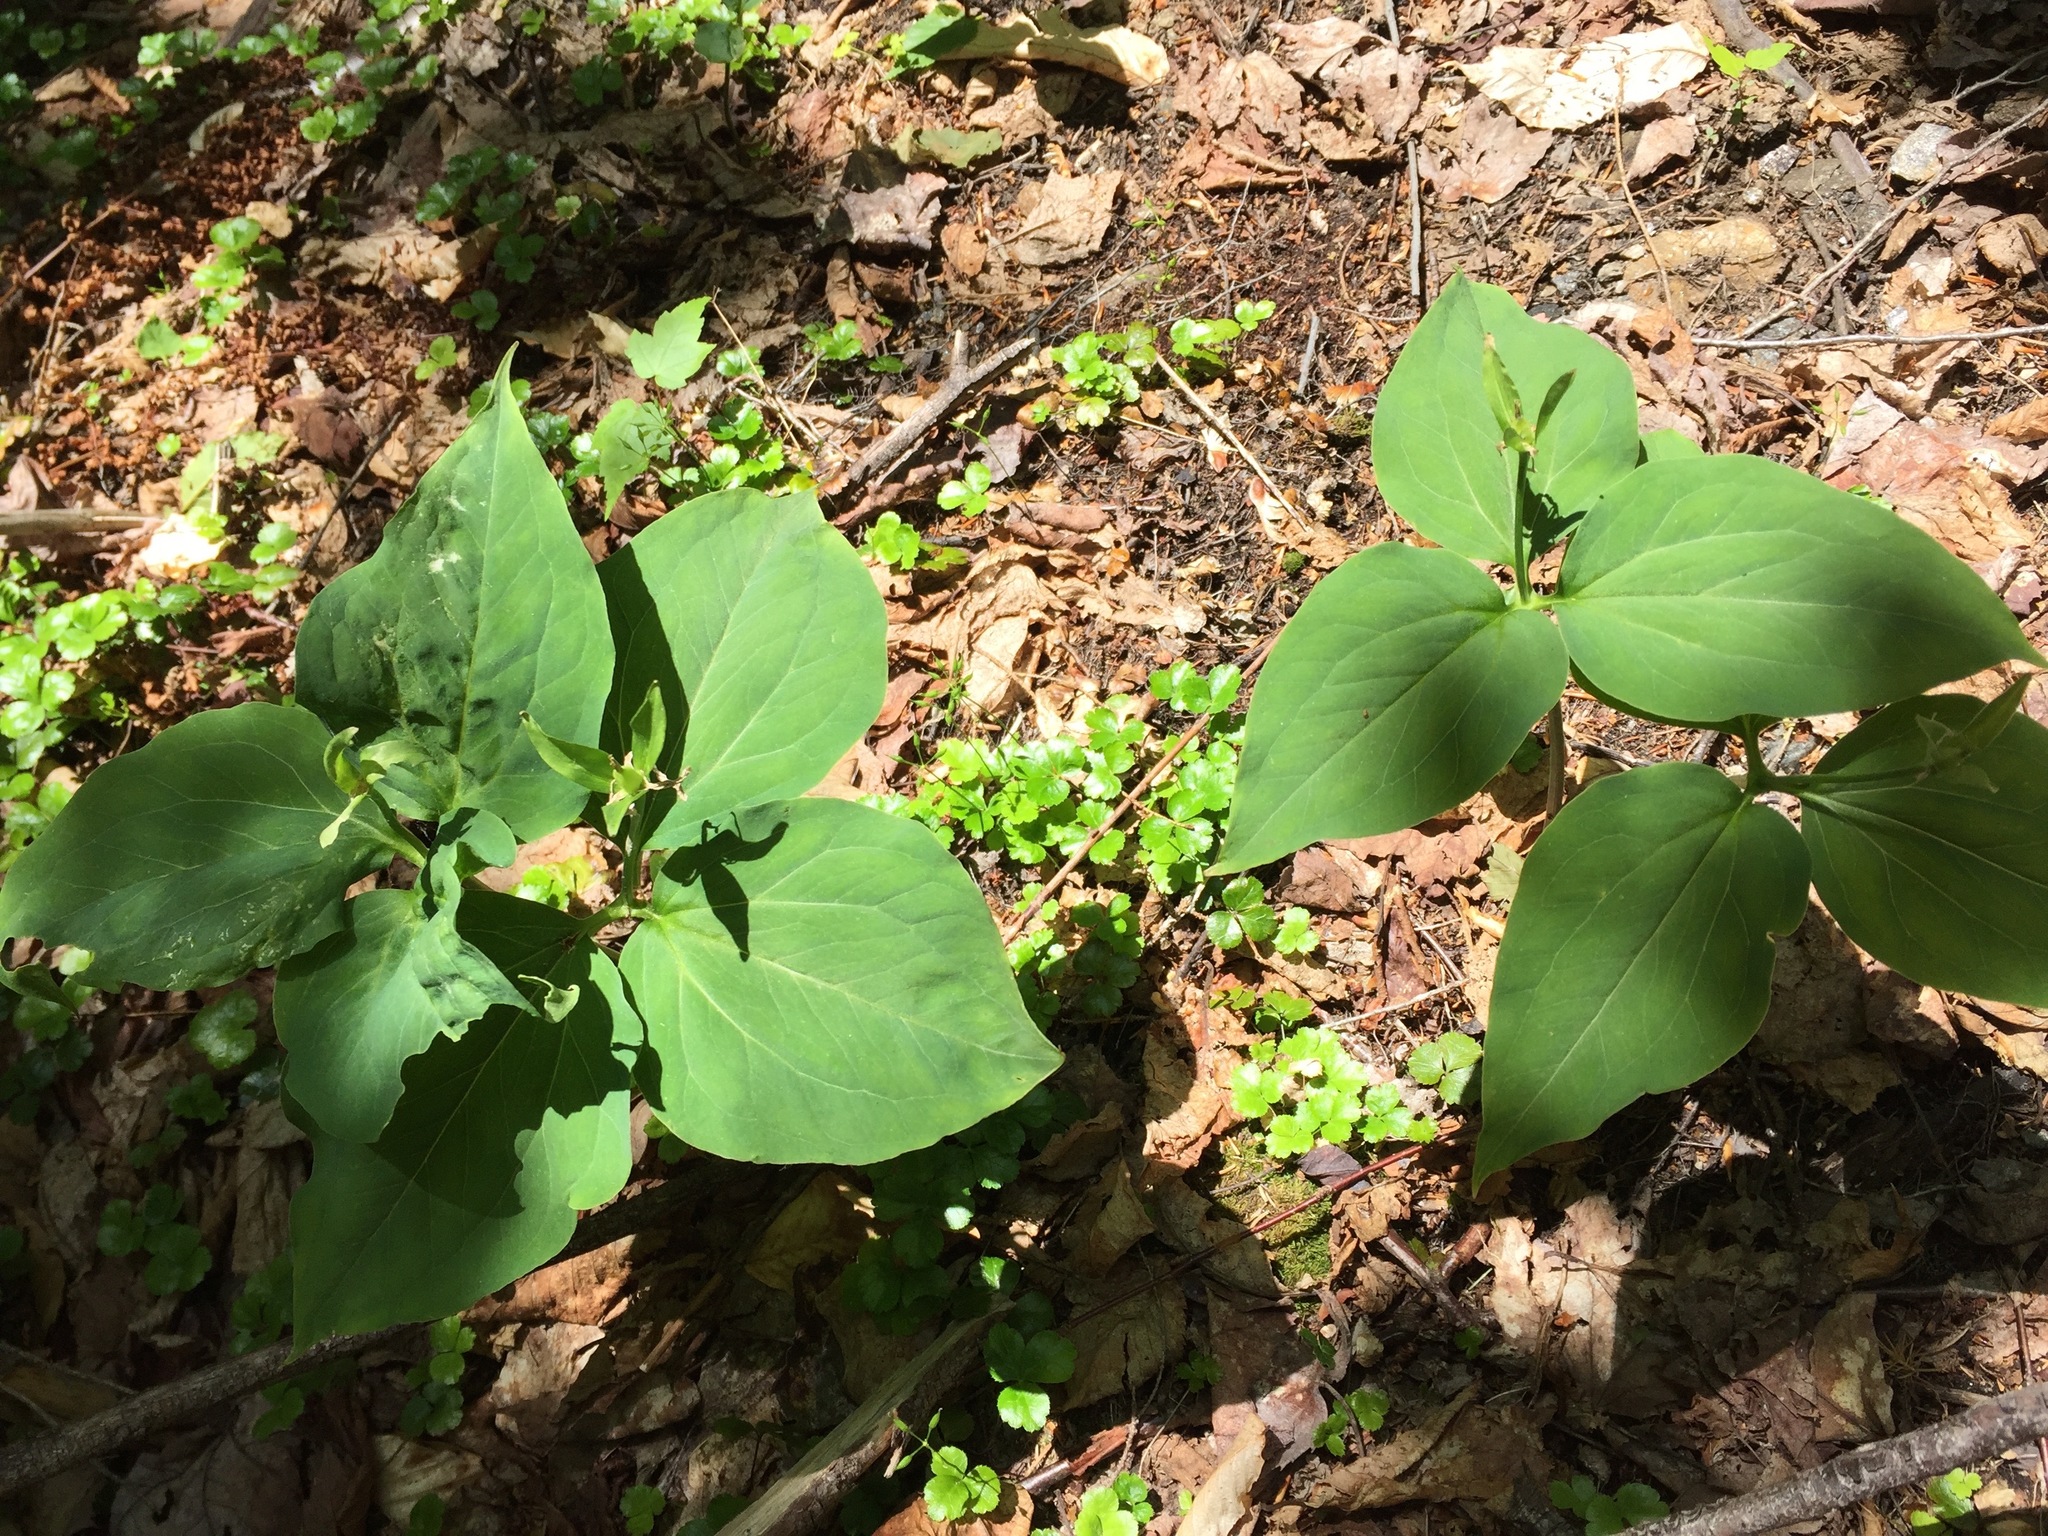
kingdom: Plantae
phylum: Tracheophyta
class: Liliopsida
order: Liliales
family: Melanthiaceae
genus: Trillium
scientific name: Trillium undulatum
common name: Paint trillium
